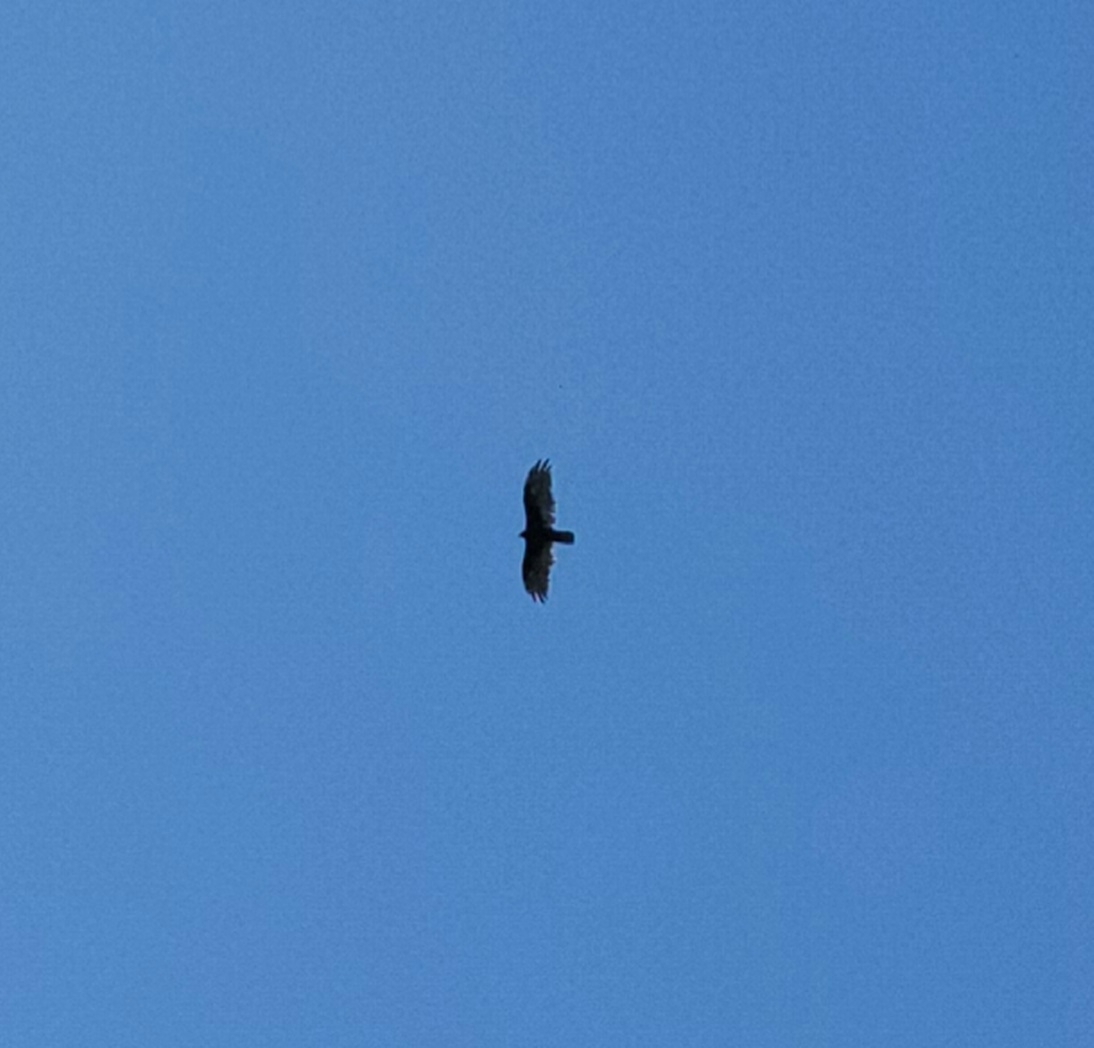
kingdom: Animalia
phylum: Chordata
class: Aves
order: Accipitriformes
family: Cathartidae
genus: Cathartes
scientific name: Cathartes aura
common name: Turkey vulture
